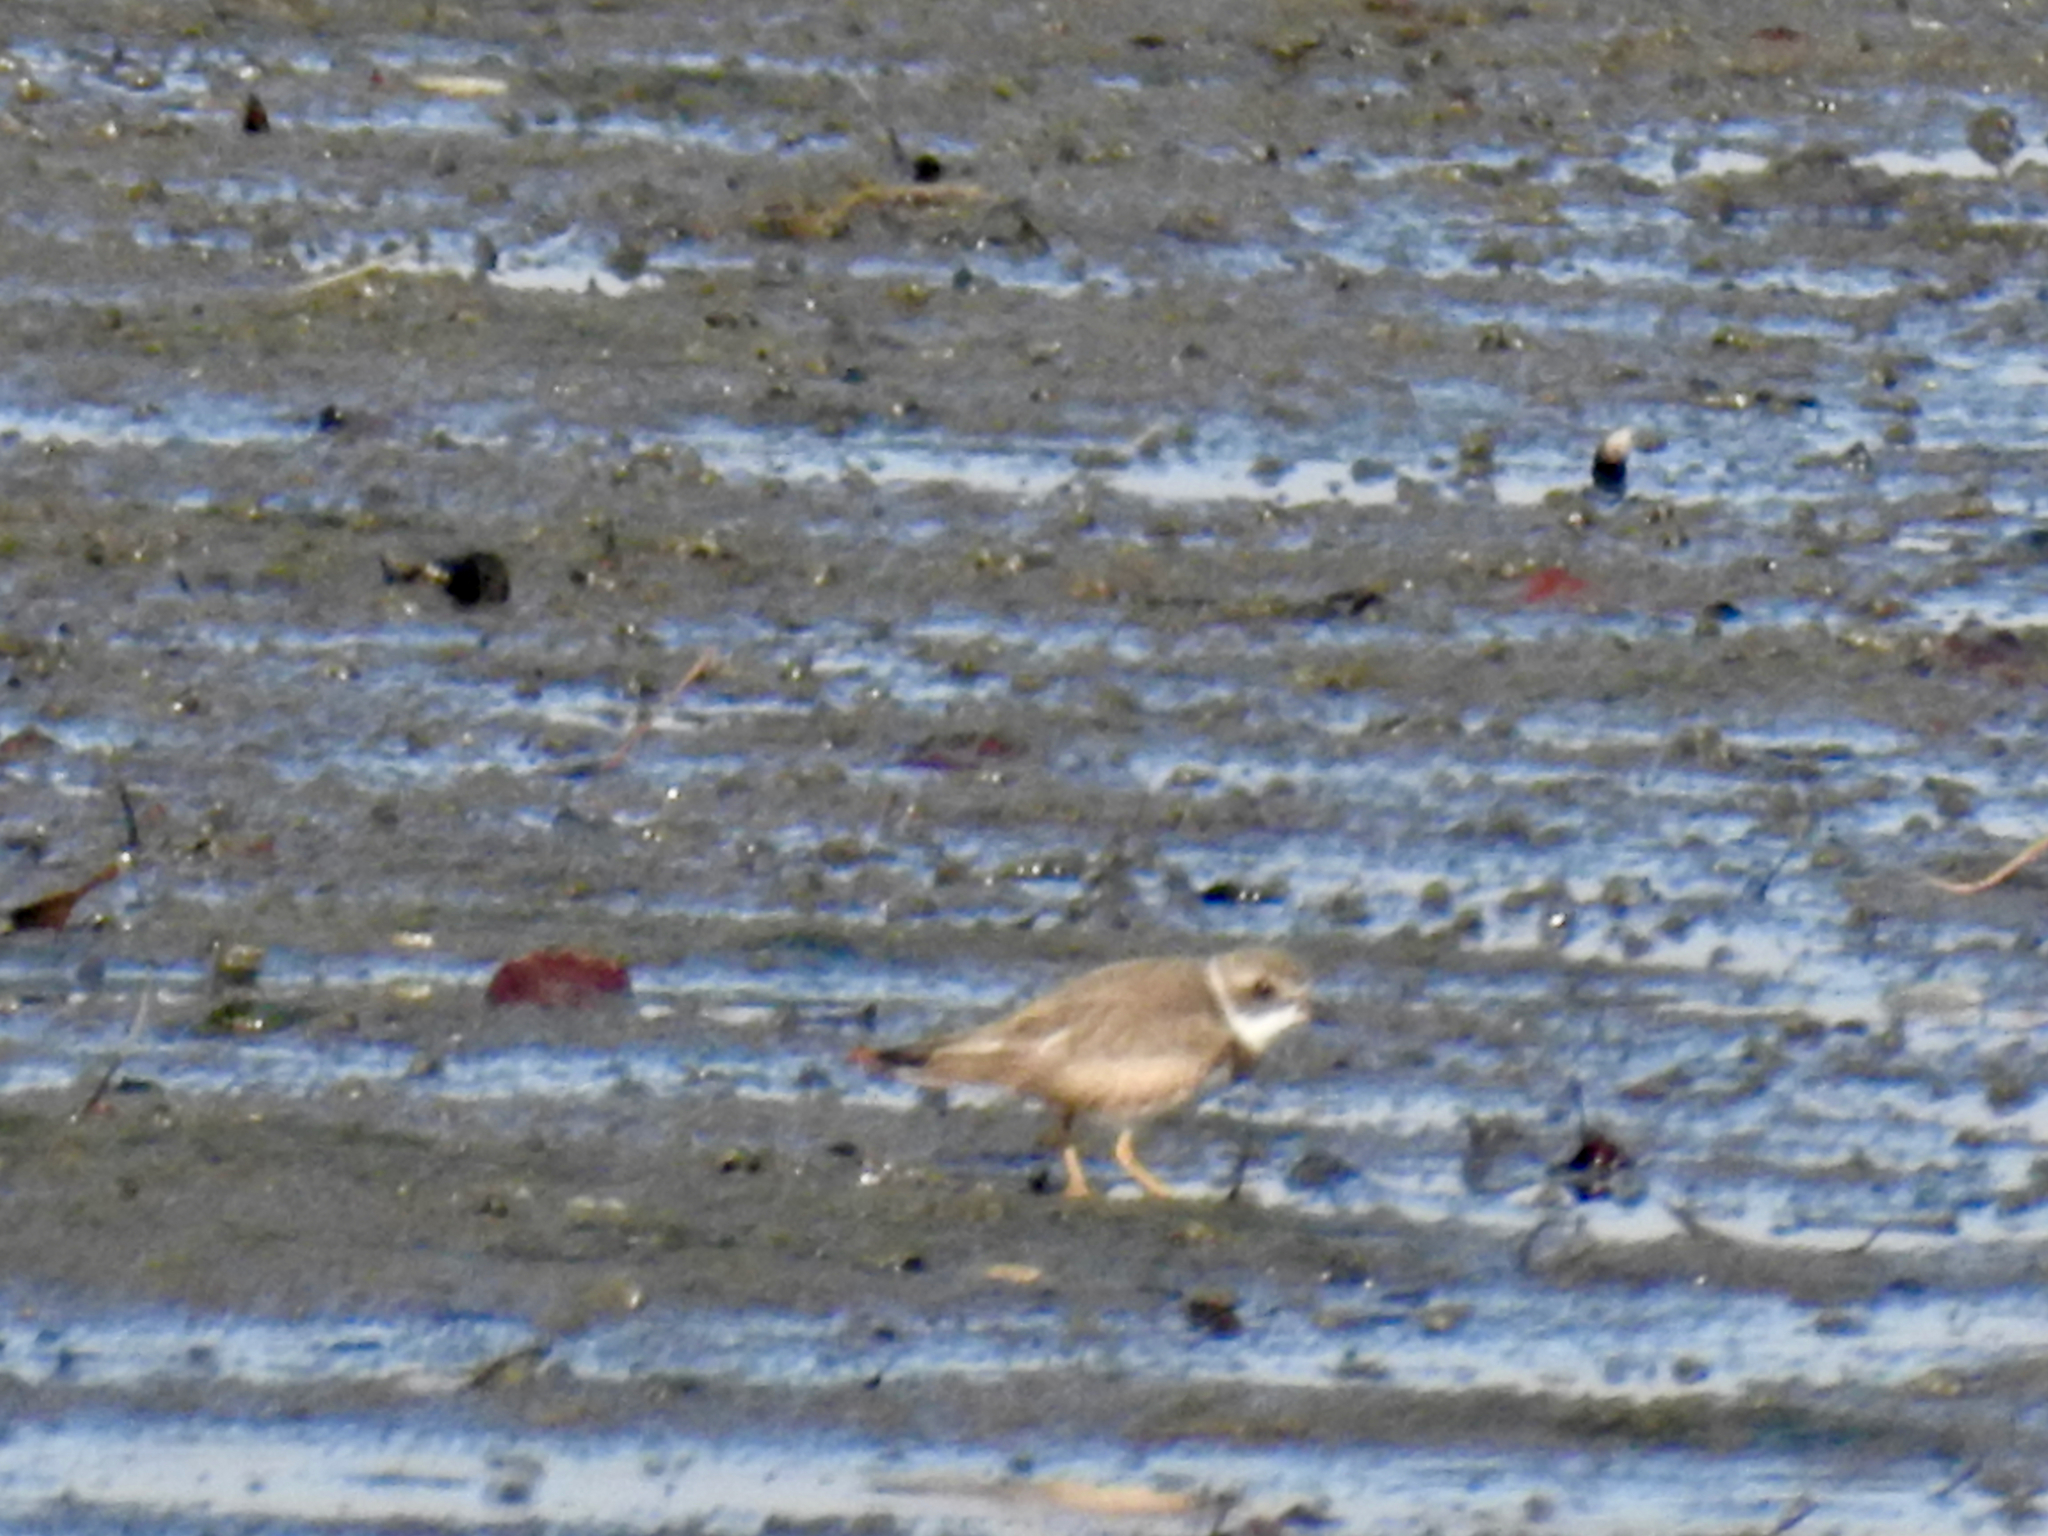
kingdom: Animalia
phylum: Chordata
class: Aves
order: Charadriiformes
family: Charadriidae
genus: Charadrius
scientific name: Charadrius semipalmatus
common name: Semipalmated plover
